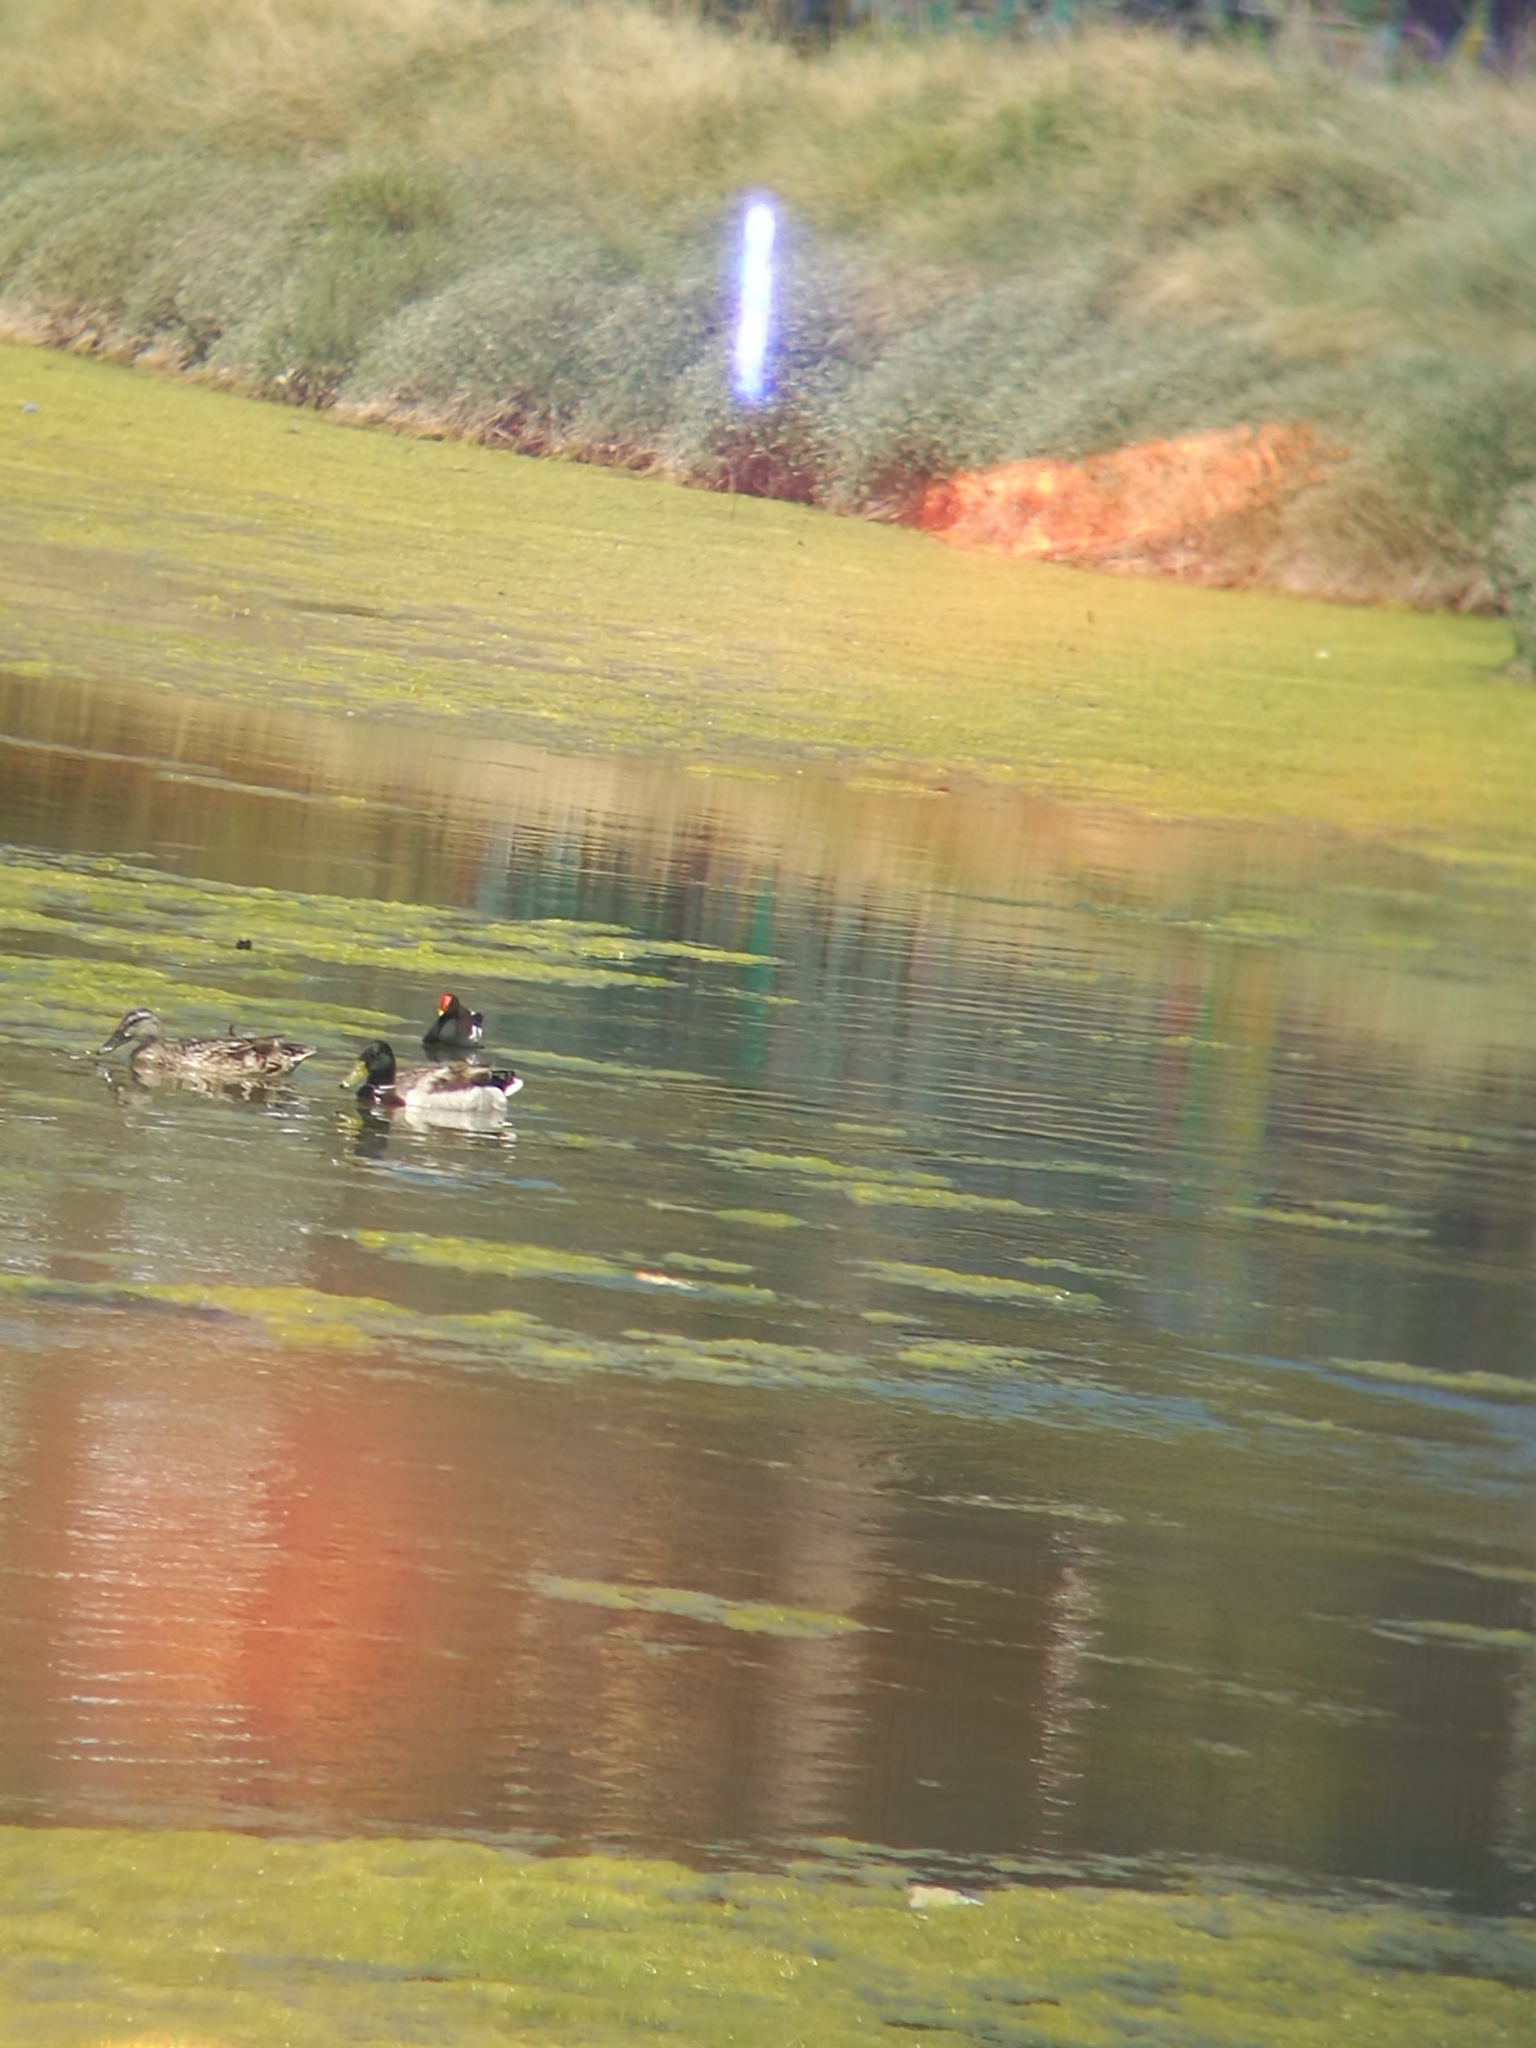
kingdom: Animalia
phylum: Chordata
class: Aves
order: Anseriformes
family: Anatidae
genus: Anas
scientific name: Anas platyrhynchos
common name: Mallard
